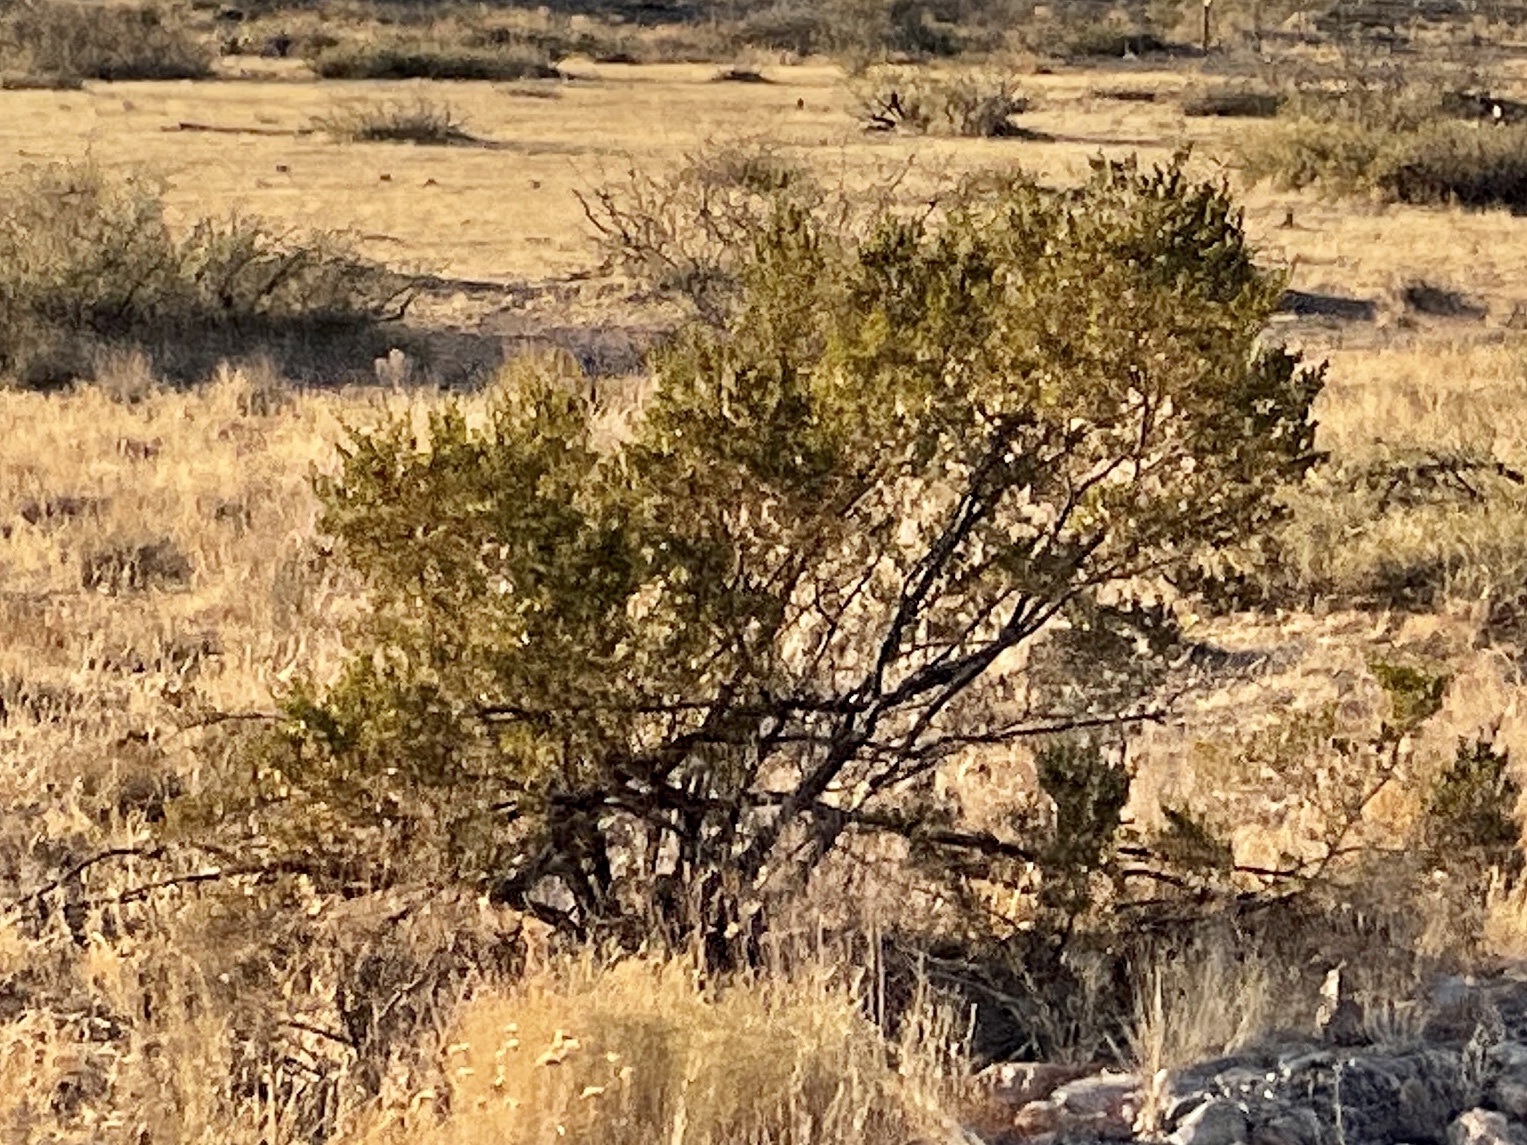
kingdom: Plantae
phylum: Tracheophyta
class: Magnoliopsida
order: Zygophyllales
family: Zygophyllaceae
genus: Larrea
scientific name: Larrea tridentata
